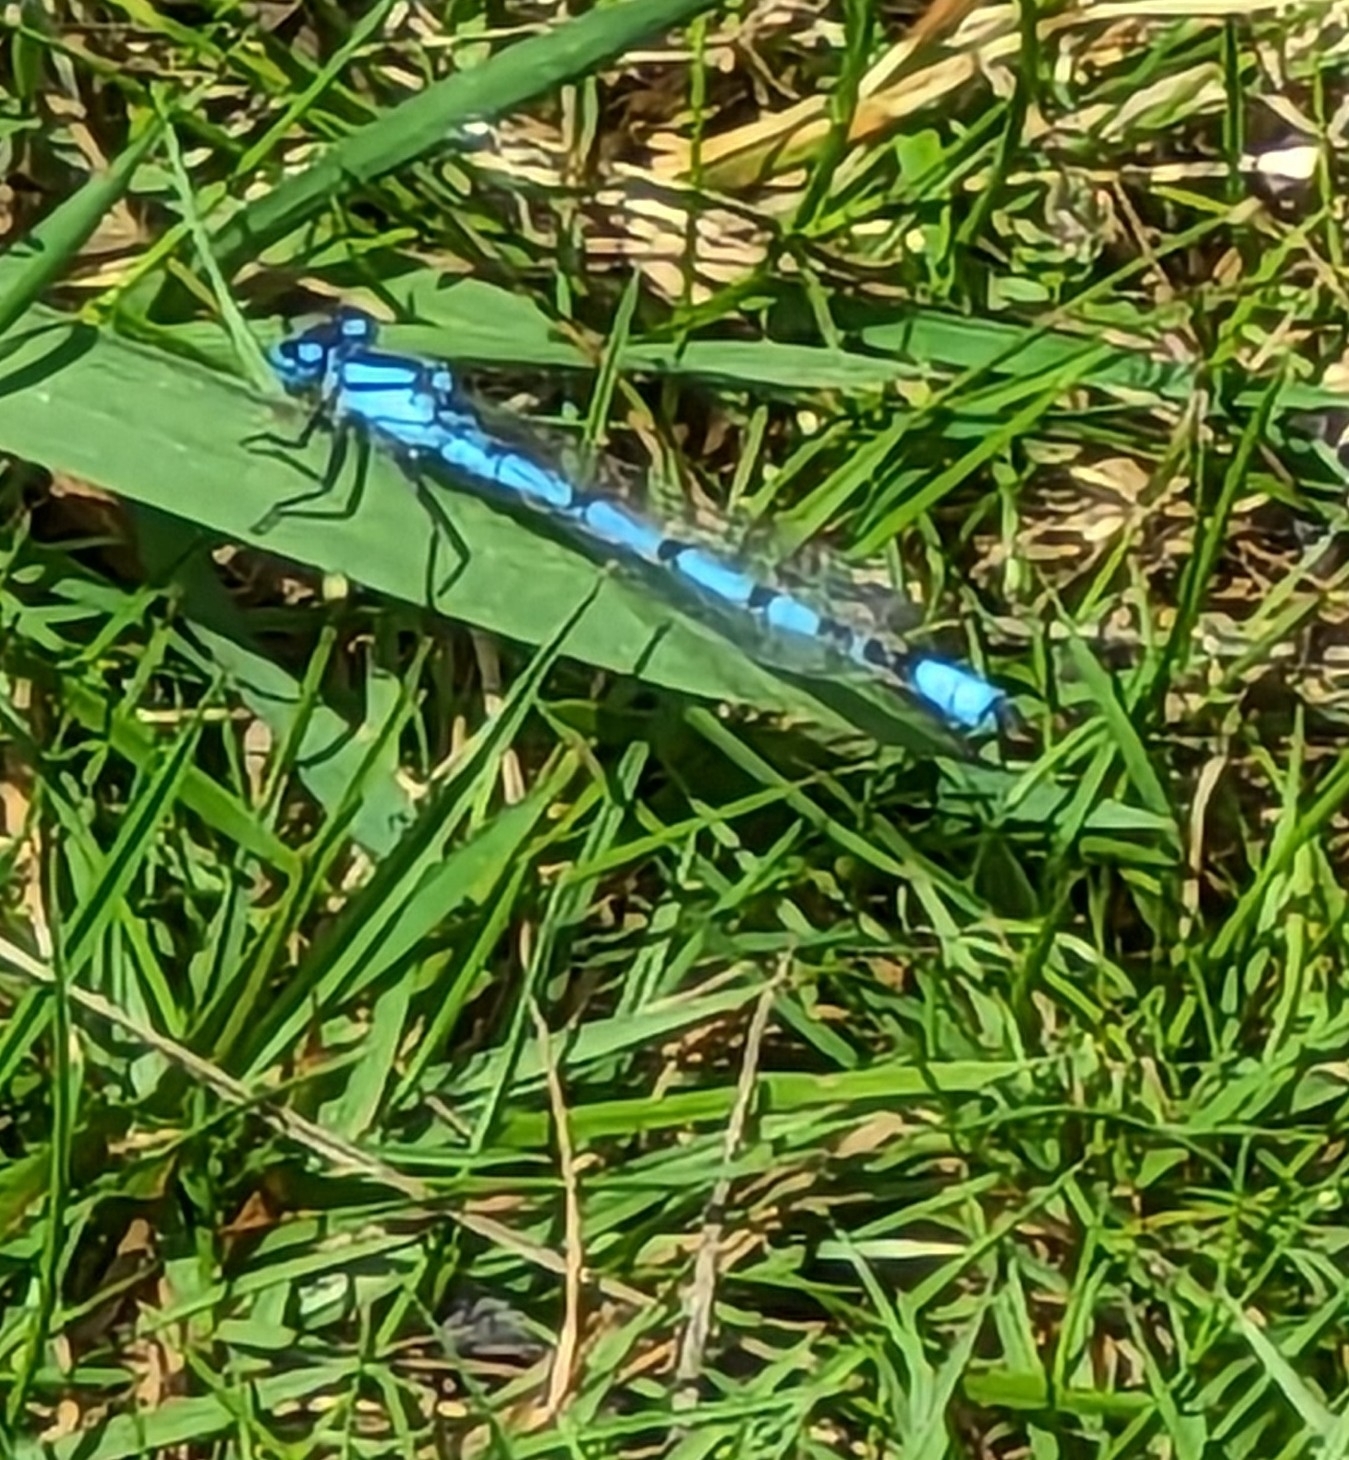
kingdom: Animalia
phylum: Arthropoda
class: Insecta
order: Odonata
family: Coenagrionidae
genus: Enallagma
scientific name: Enallagma cyathigerum
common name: Common blue damselfly
